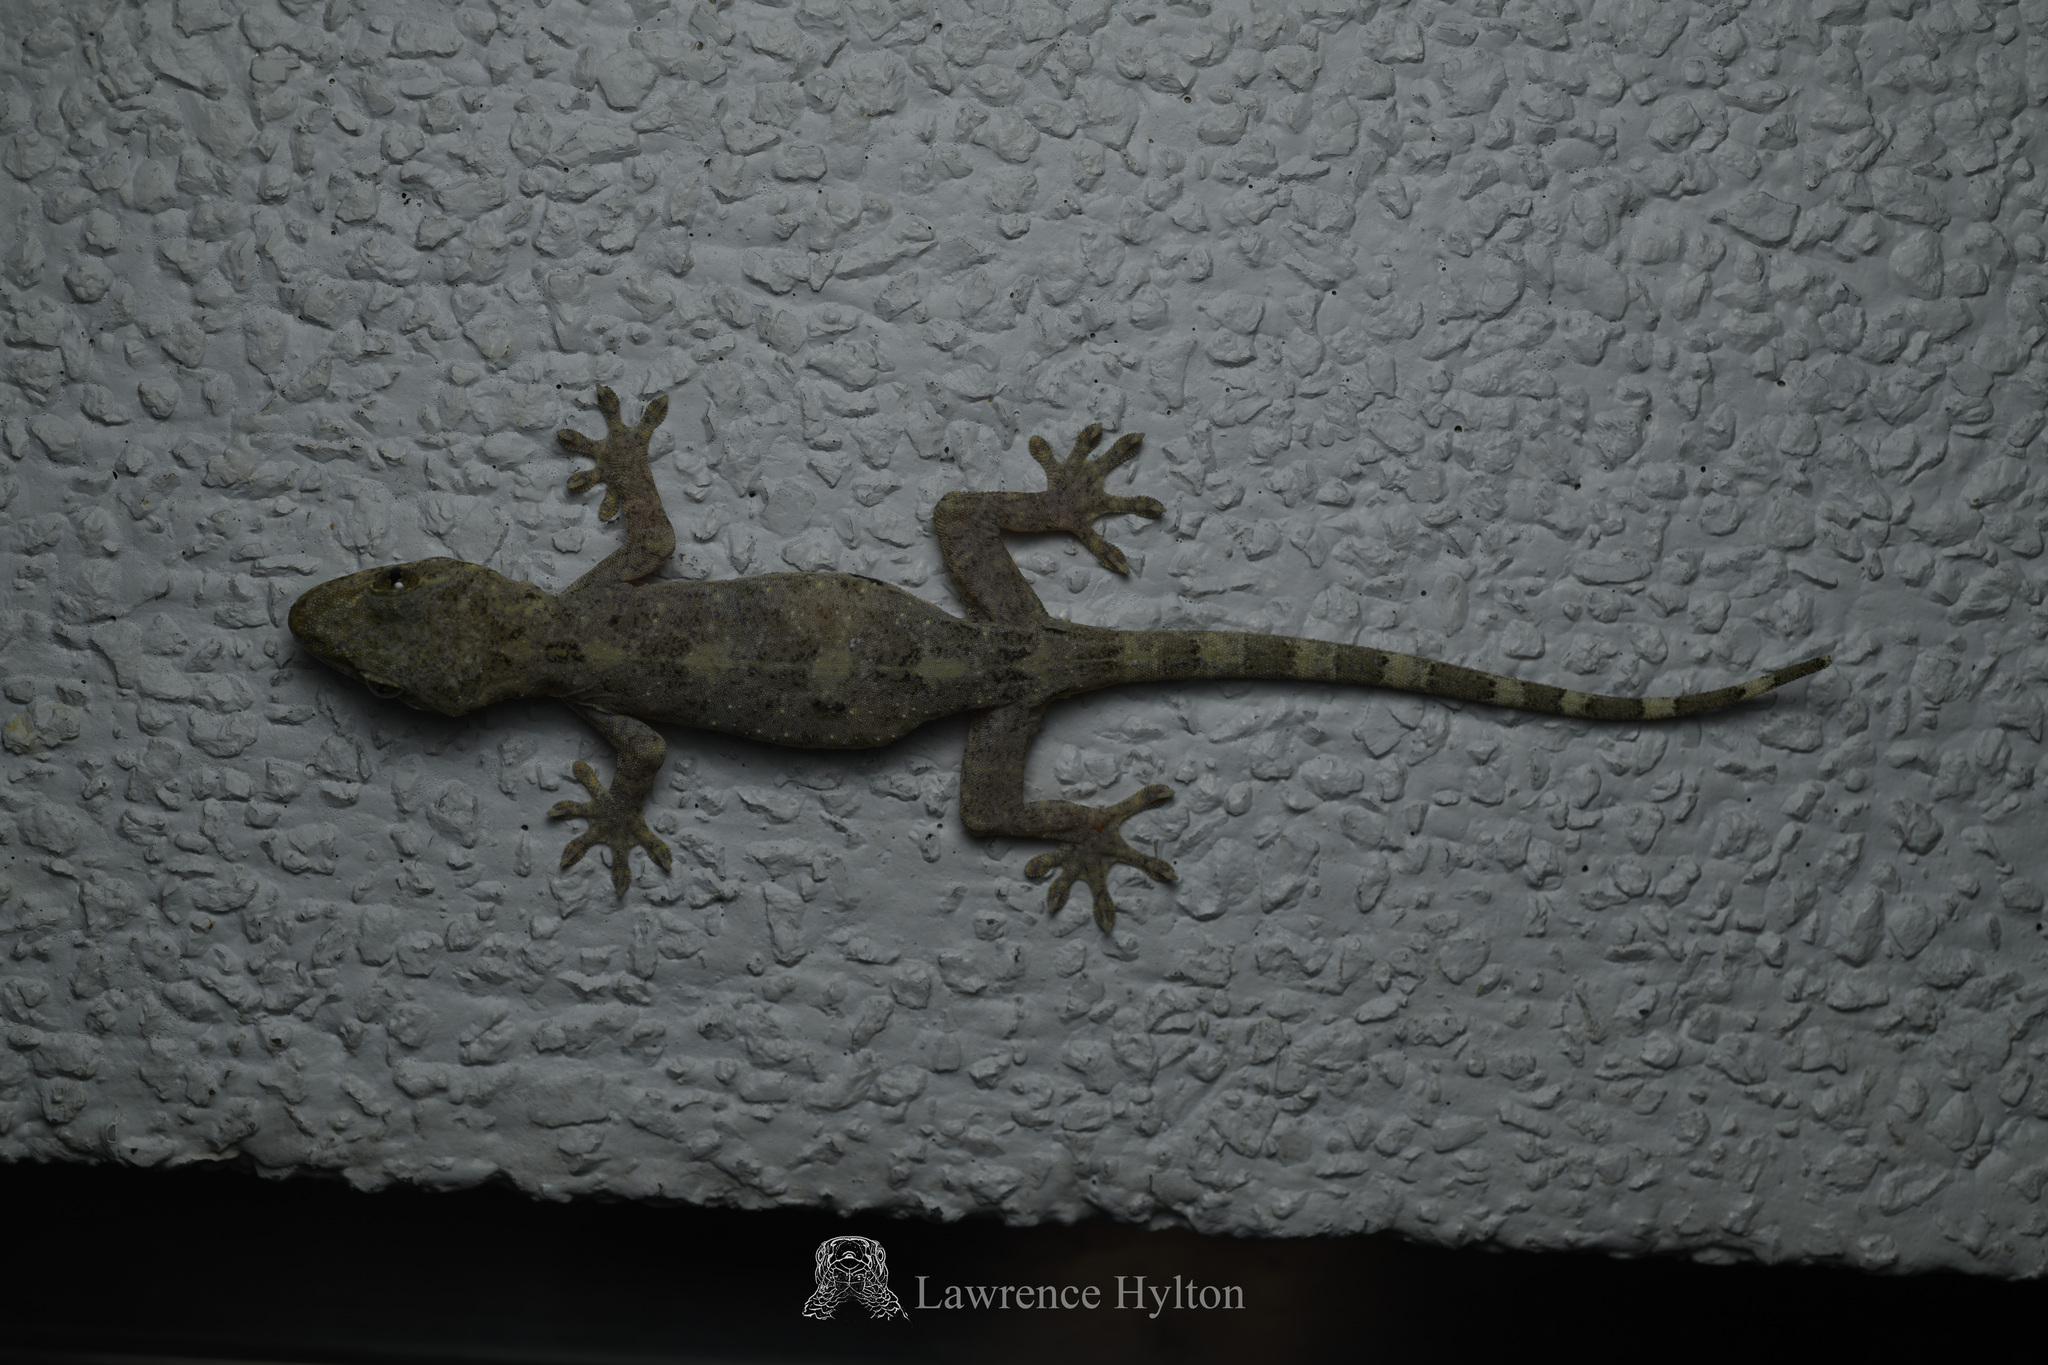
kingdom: Animalia
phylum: Chordata
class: Squamata
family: Gekkonidae
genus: Gekko
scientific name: Gekko chinensis
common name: Gray's chinese gecko
